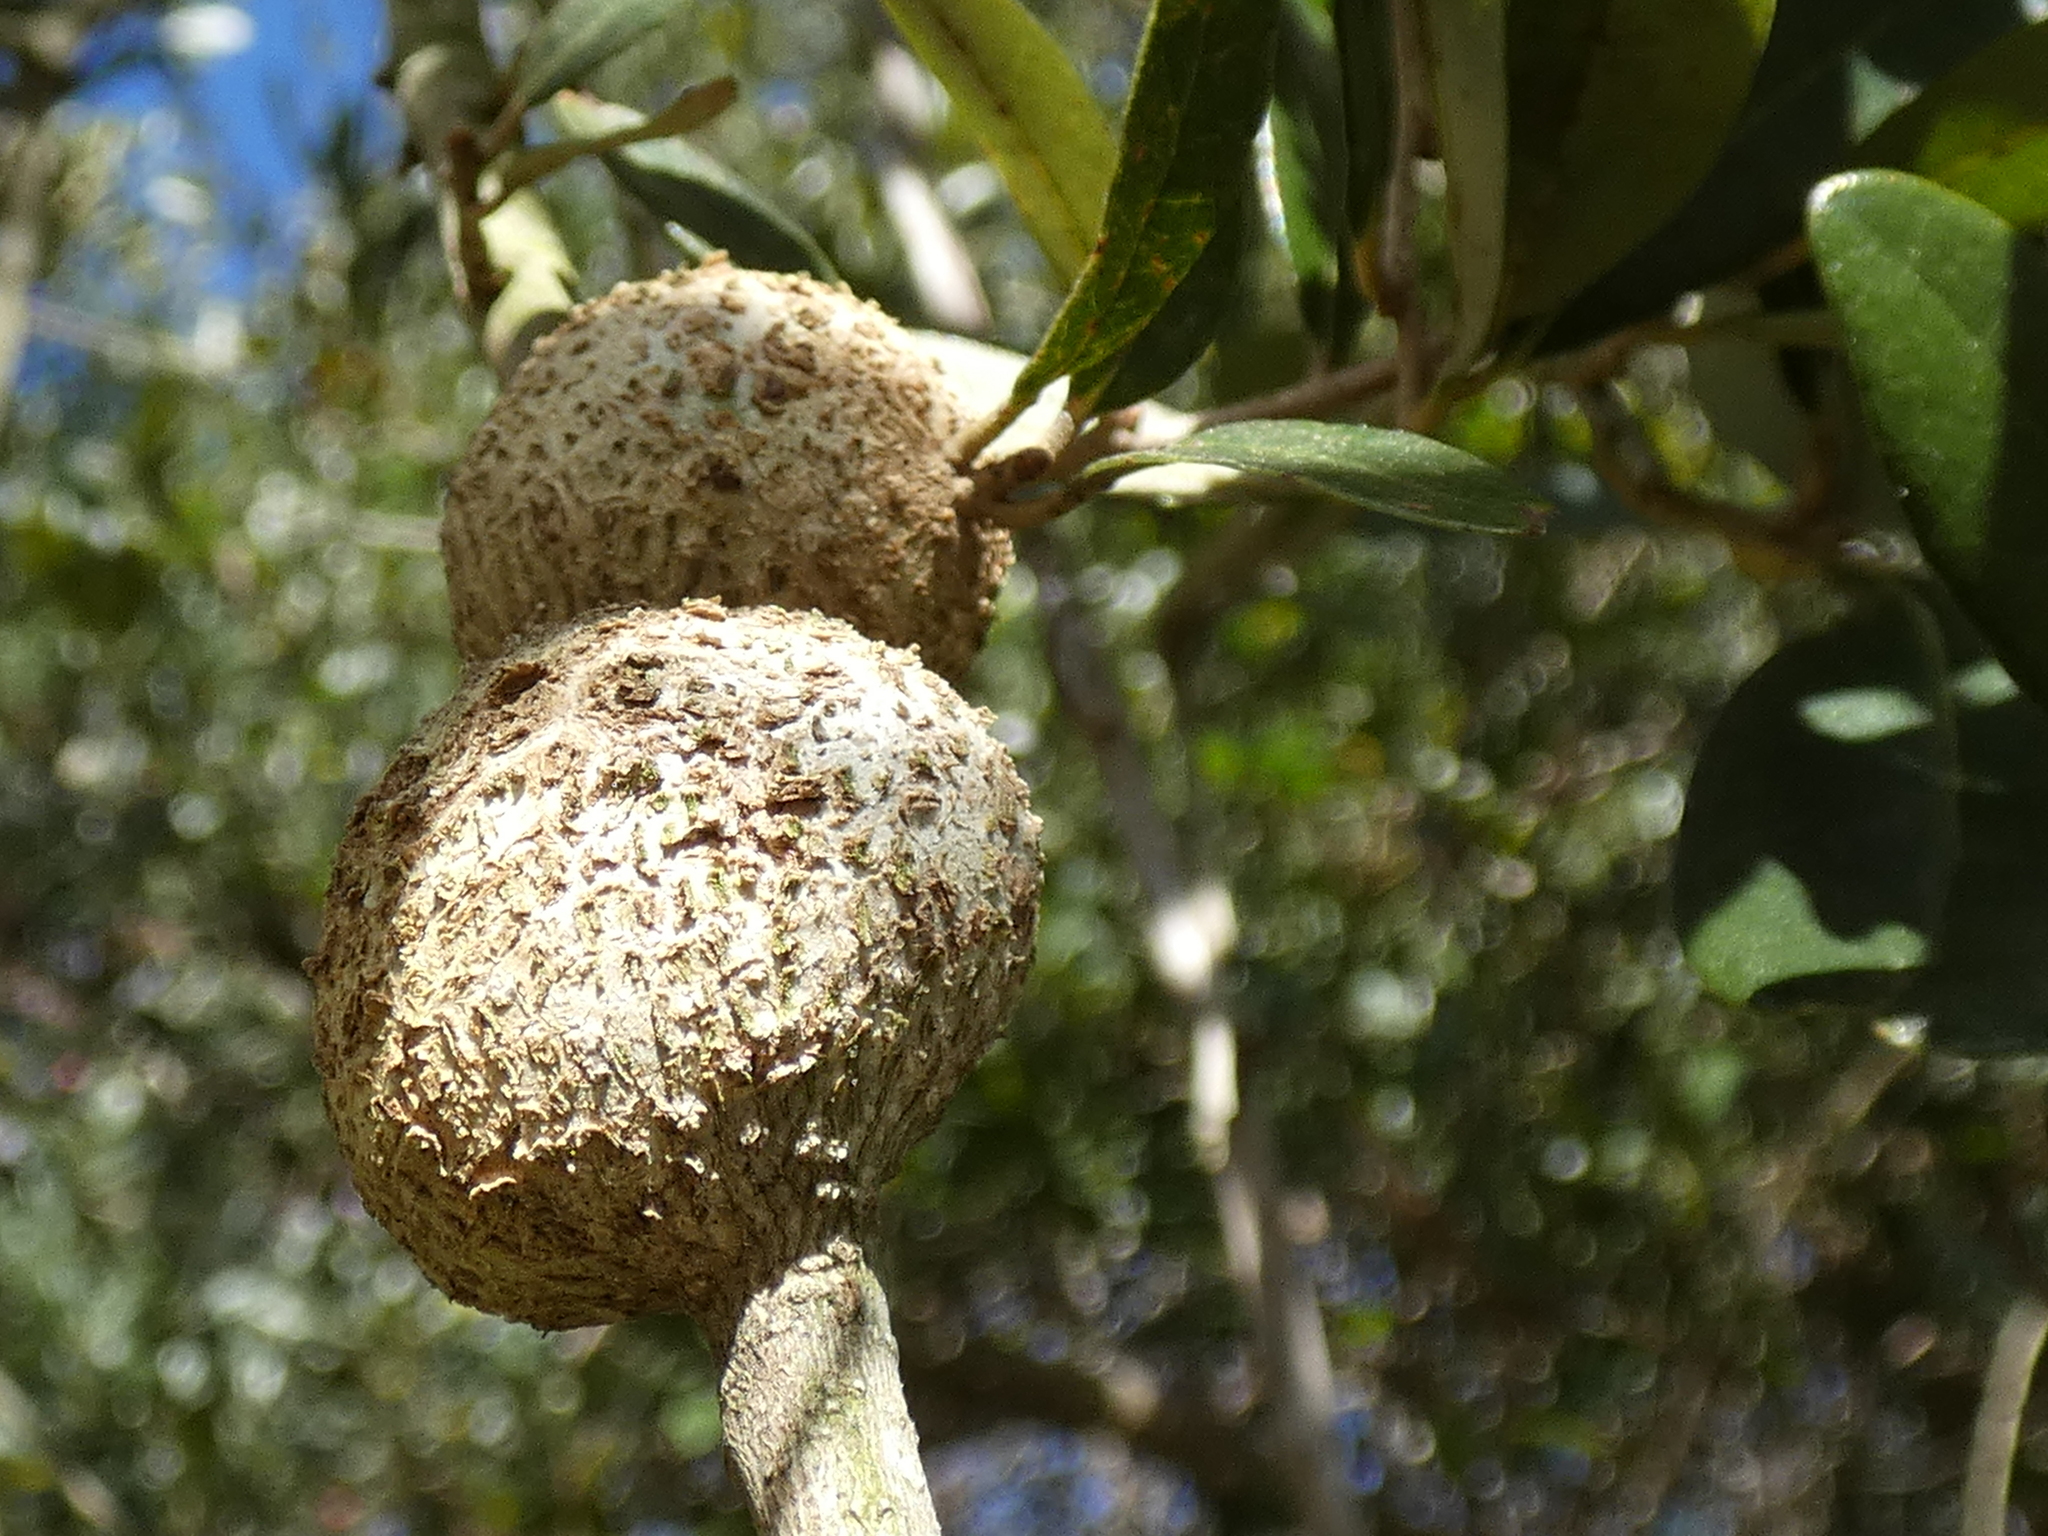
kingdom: Animalia
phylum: Arthropoda
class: Insecta
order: Hymenoptera
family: Cynipidae
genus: Callirhytis
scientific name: Callirhytis
